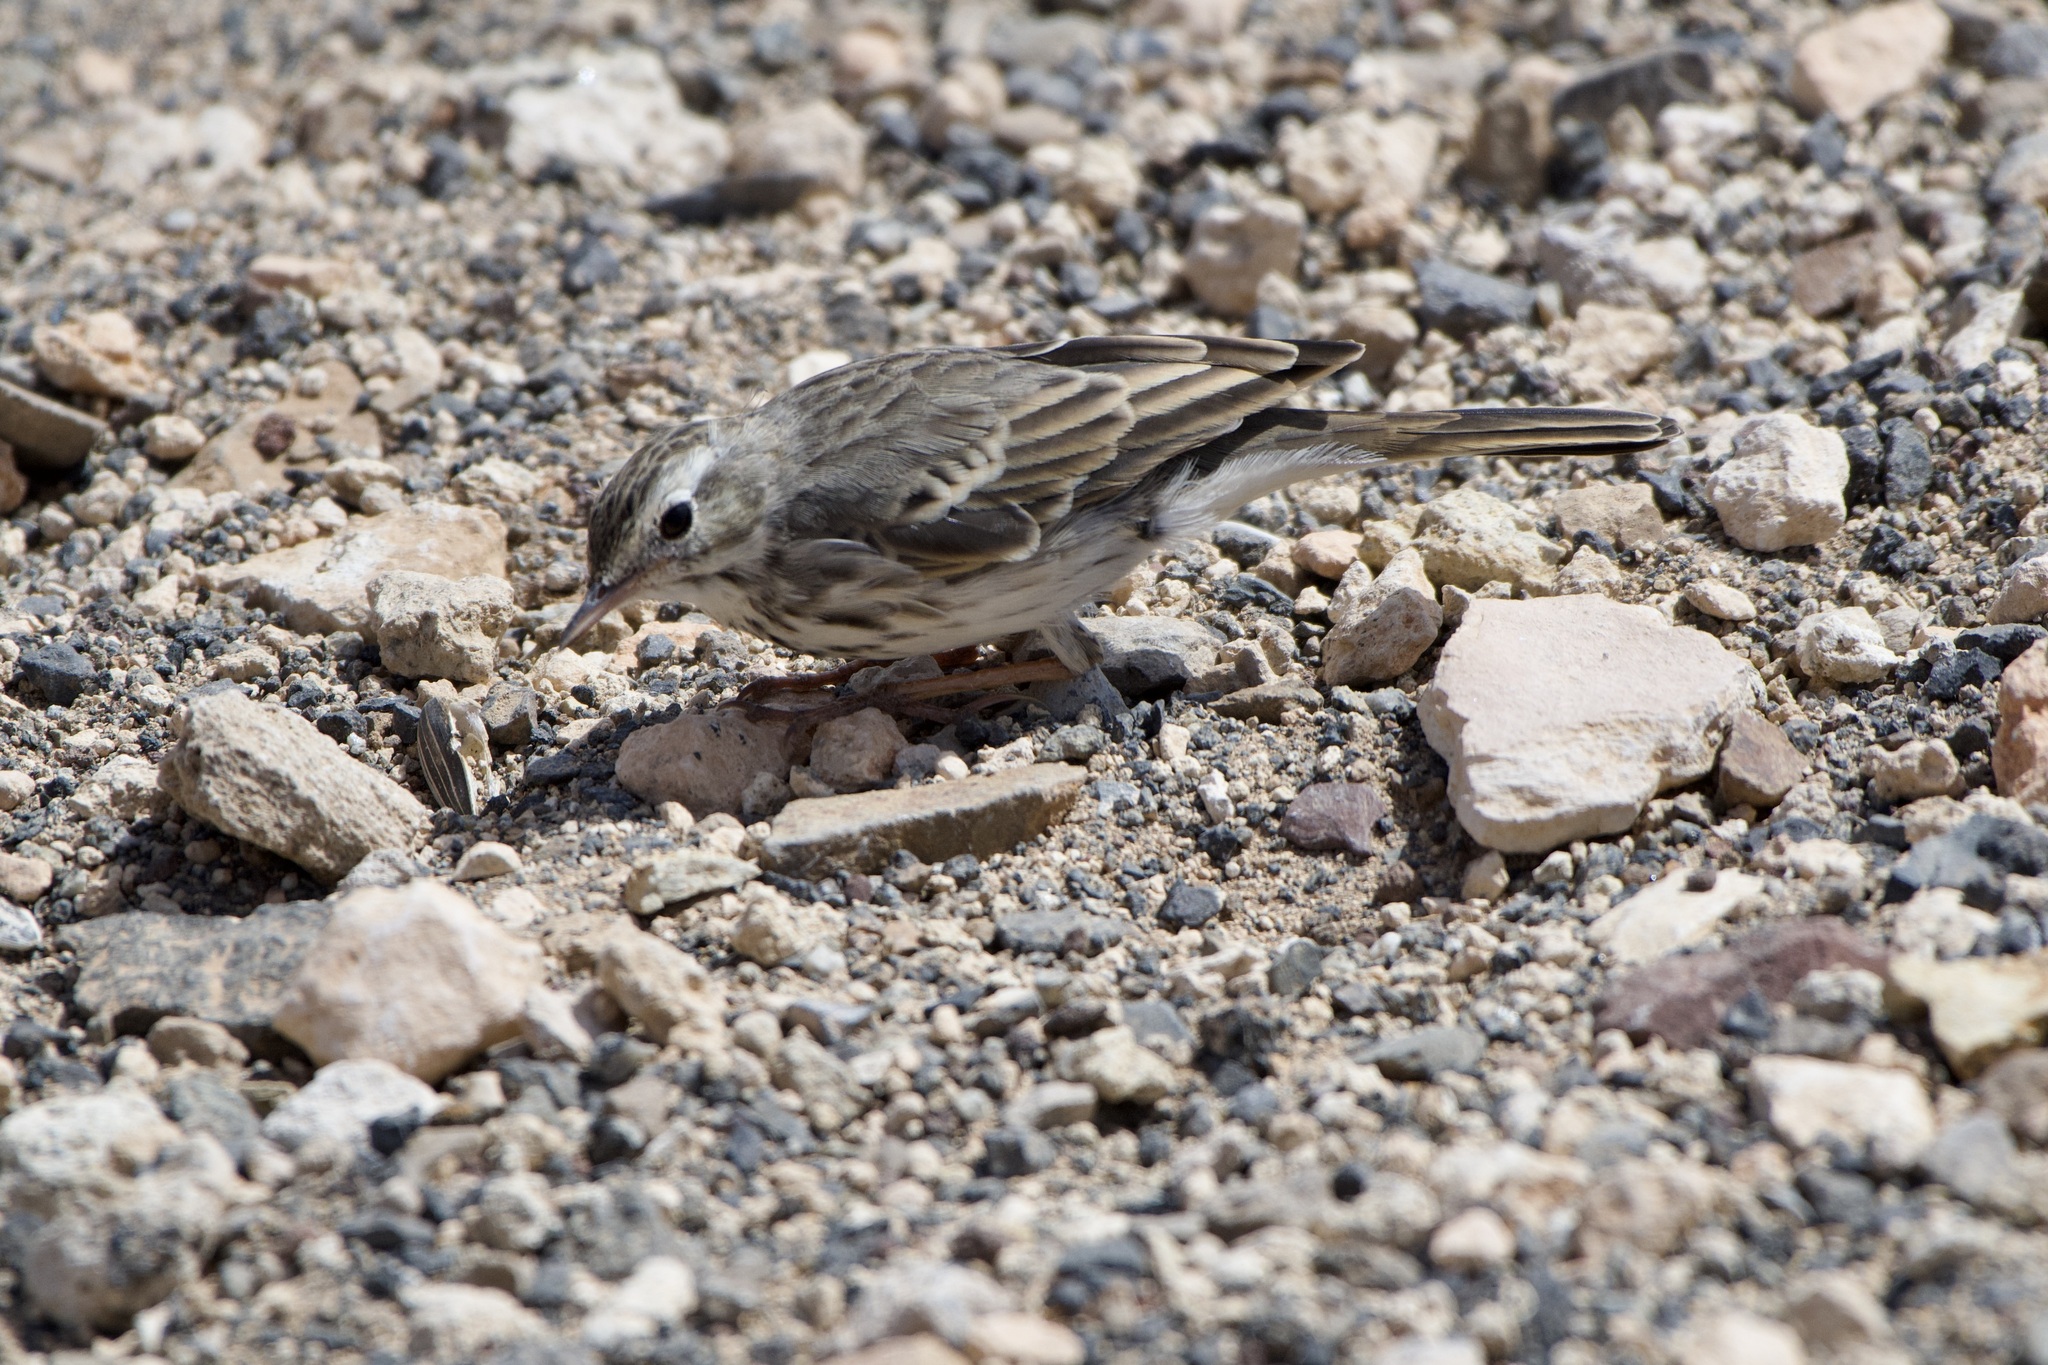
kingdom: Animalia
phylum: Chordata
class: Aves
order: Passeriformes
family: Motacillidae
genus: Anthus
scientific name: Anthus berthelotii
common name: Berthelot's pipit
